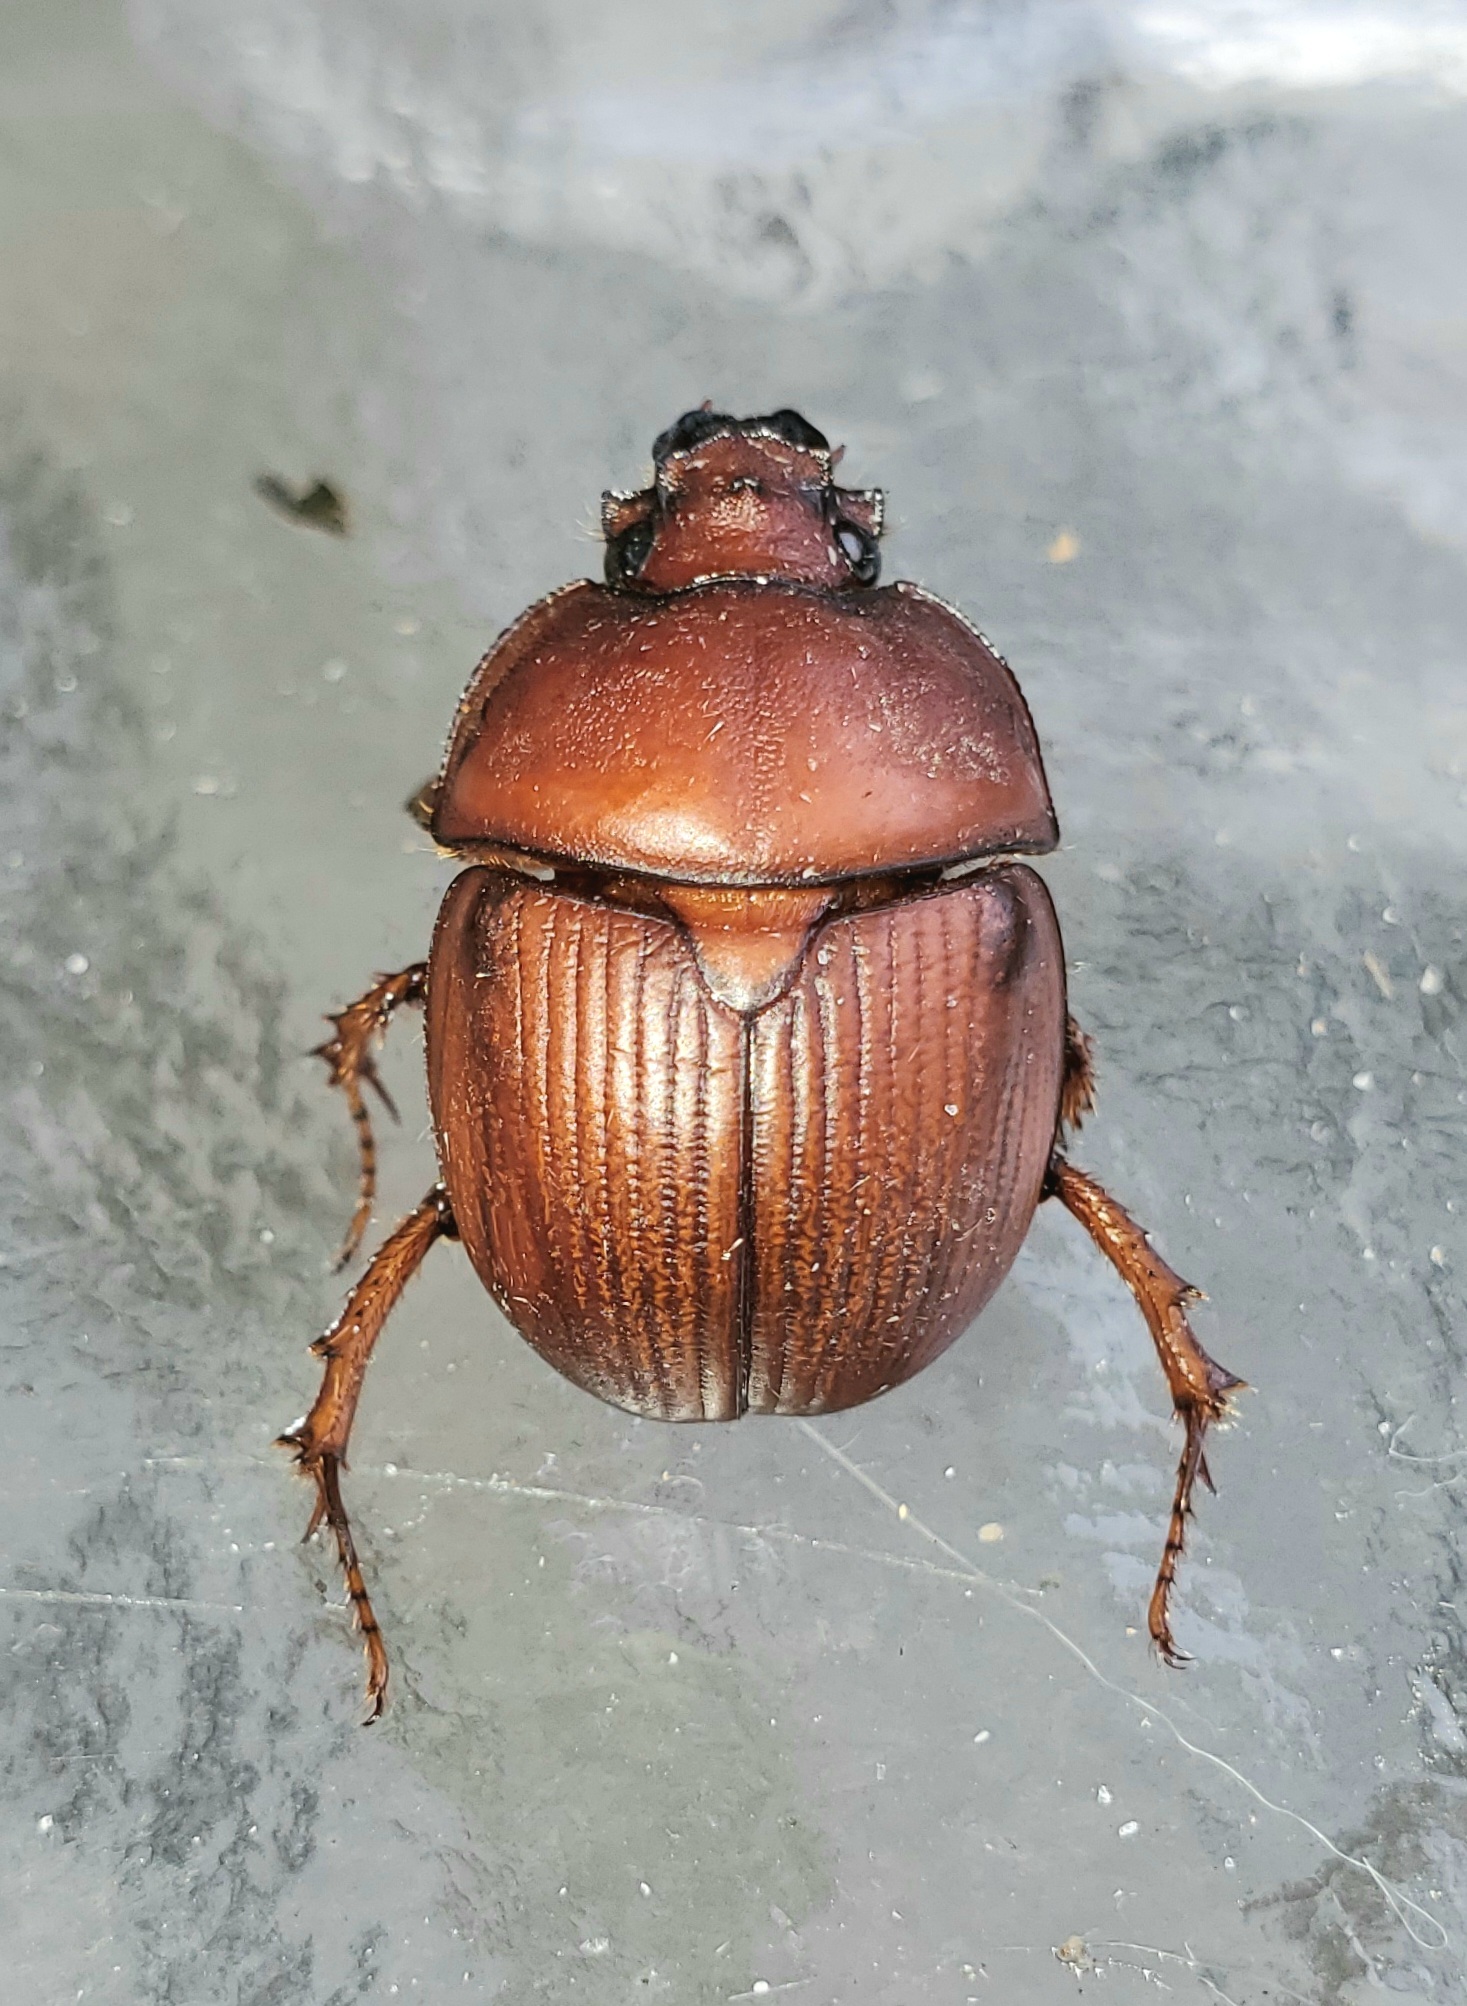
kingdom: Animalia
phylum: Arthropoda
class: Insecta
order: Coleoptera
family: Geotrupidae
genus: Bradycinetulus
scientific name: Bradycinetulus ferrugineus
